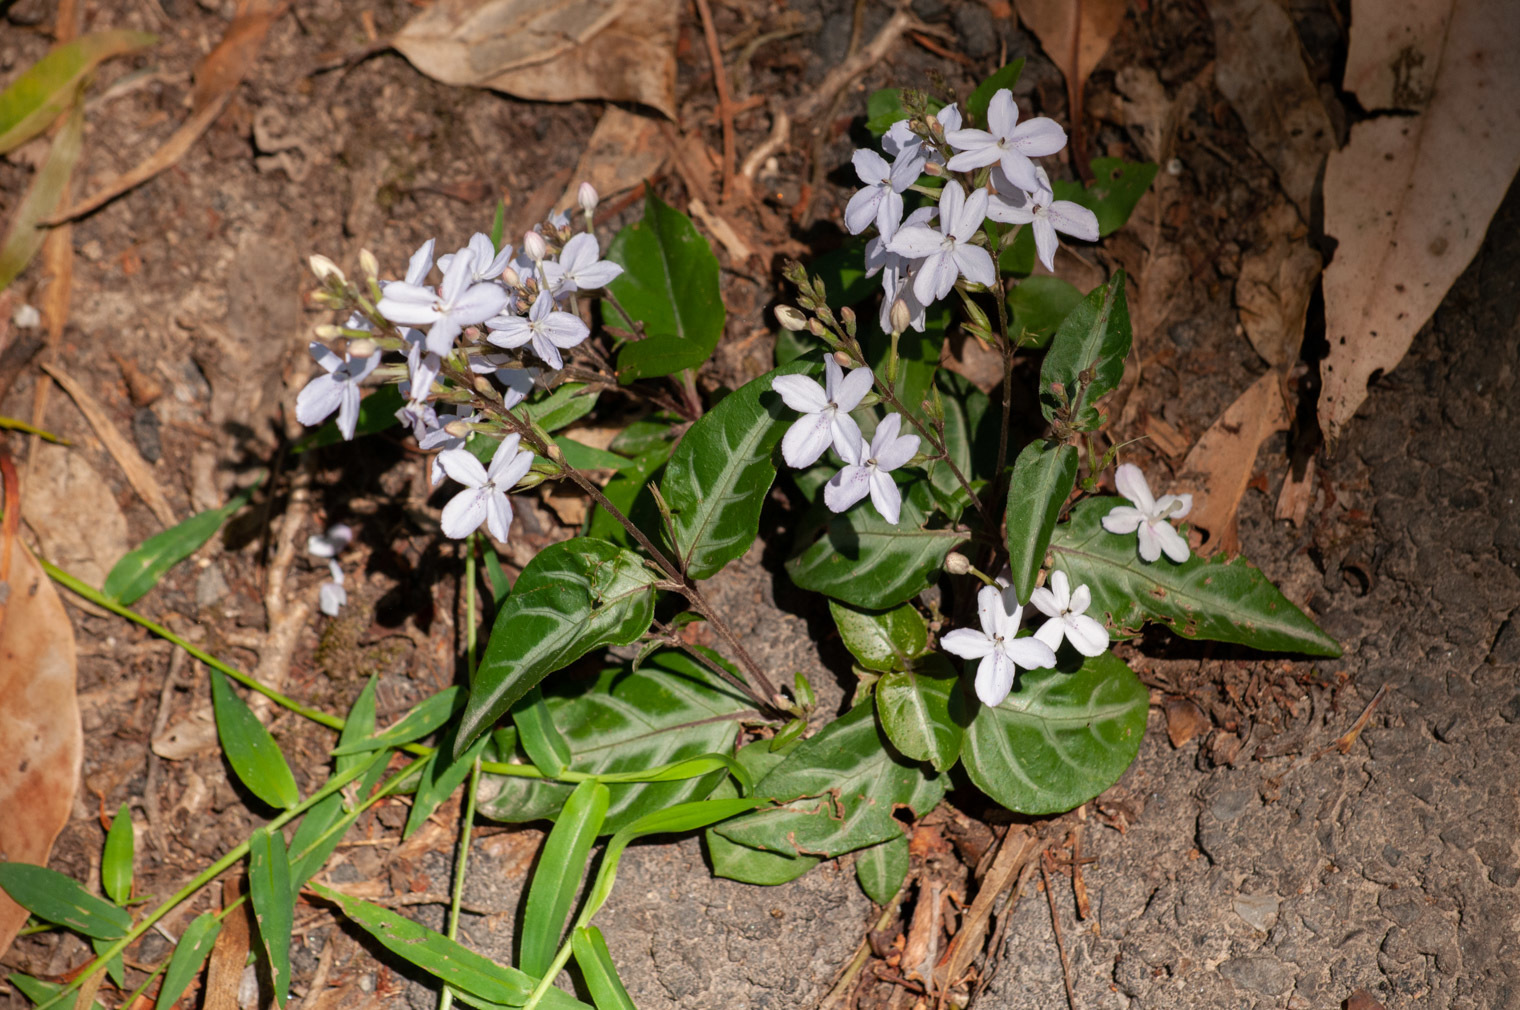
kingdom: Plantae
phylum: Tracheophyta
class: Magnoliopsida
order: Lamiales
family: Acanthaceae
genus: Pseuderanthemum
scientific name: Pseuderanthemum variabile
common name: Night and afternoon
